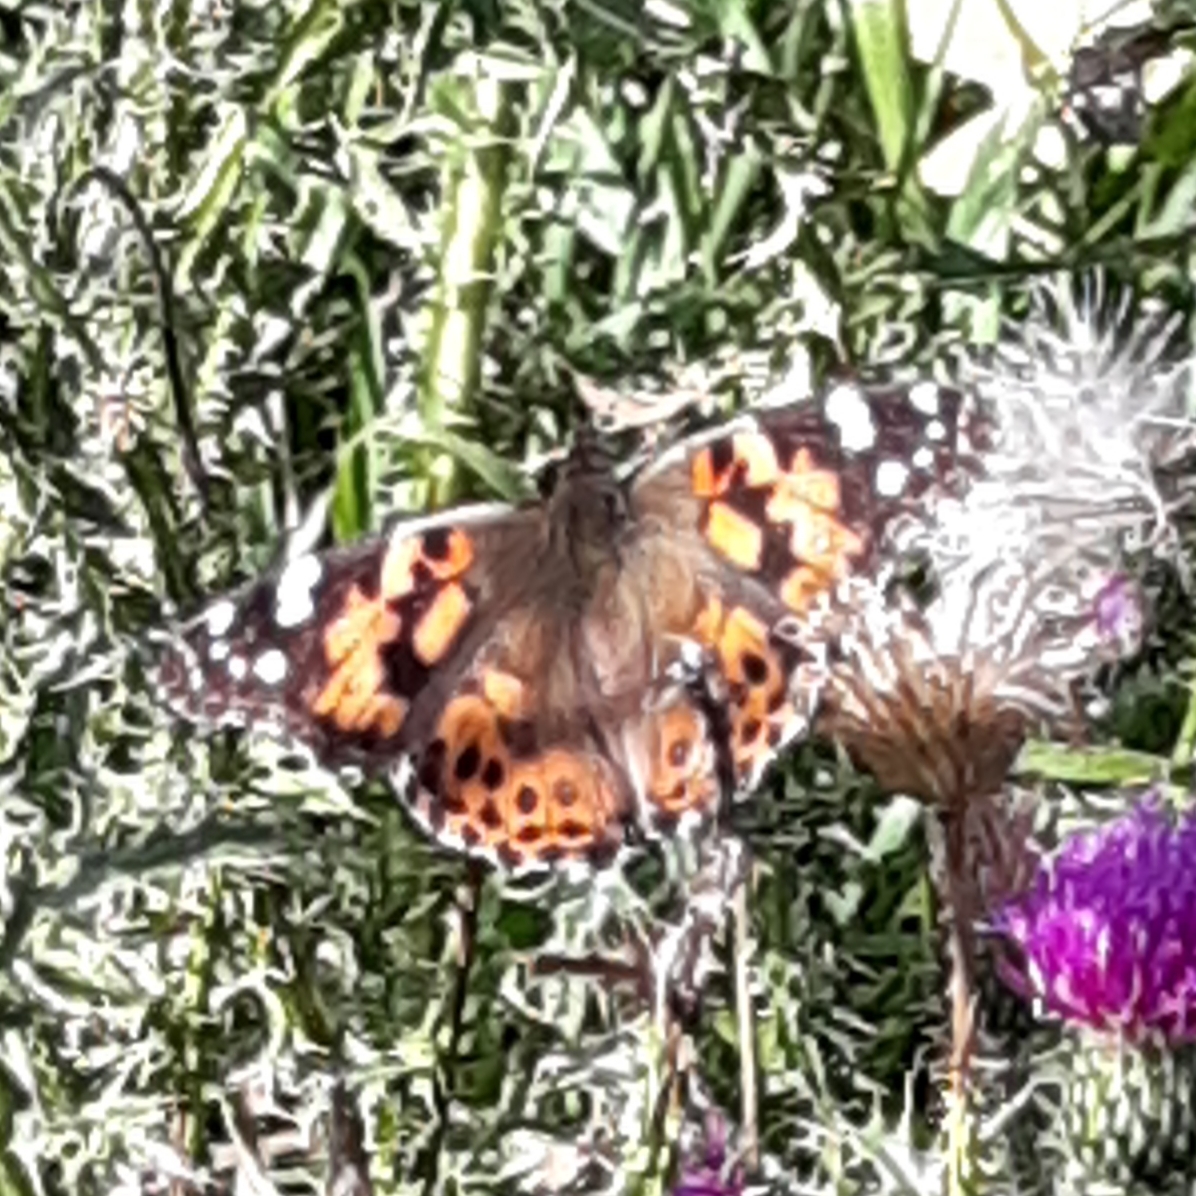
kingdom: Animalia
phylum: Arthropoda
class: Insecta
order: Lepidoptera
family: Nymphalidae
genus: Vanessa
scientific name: Vanessa cardui
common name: Painted lady
